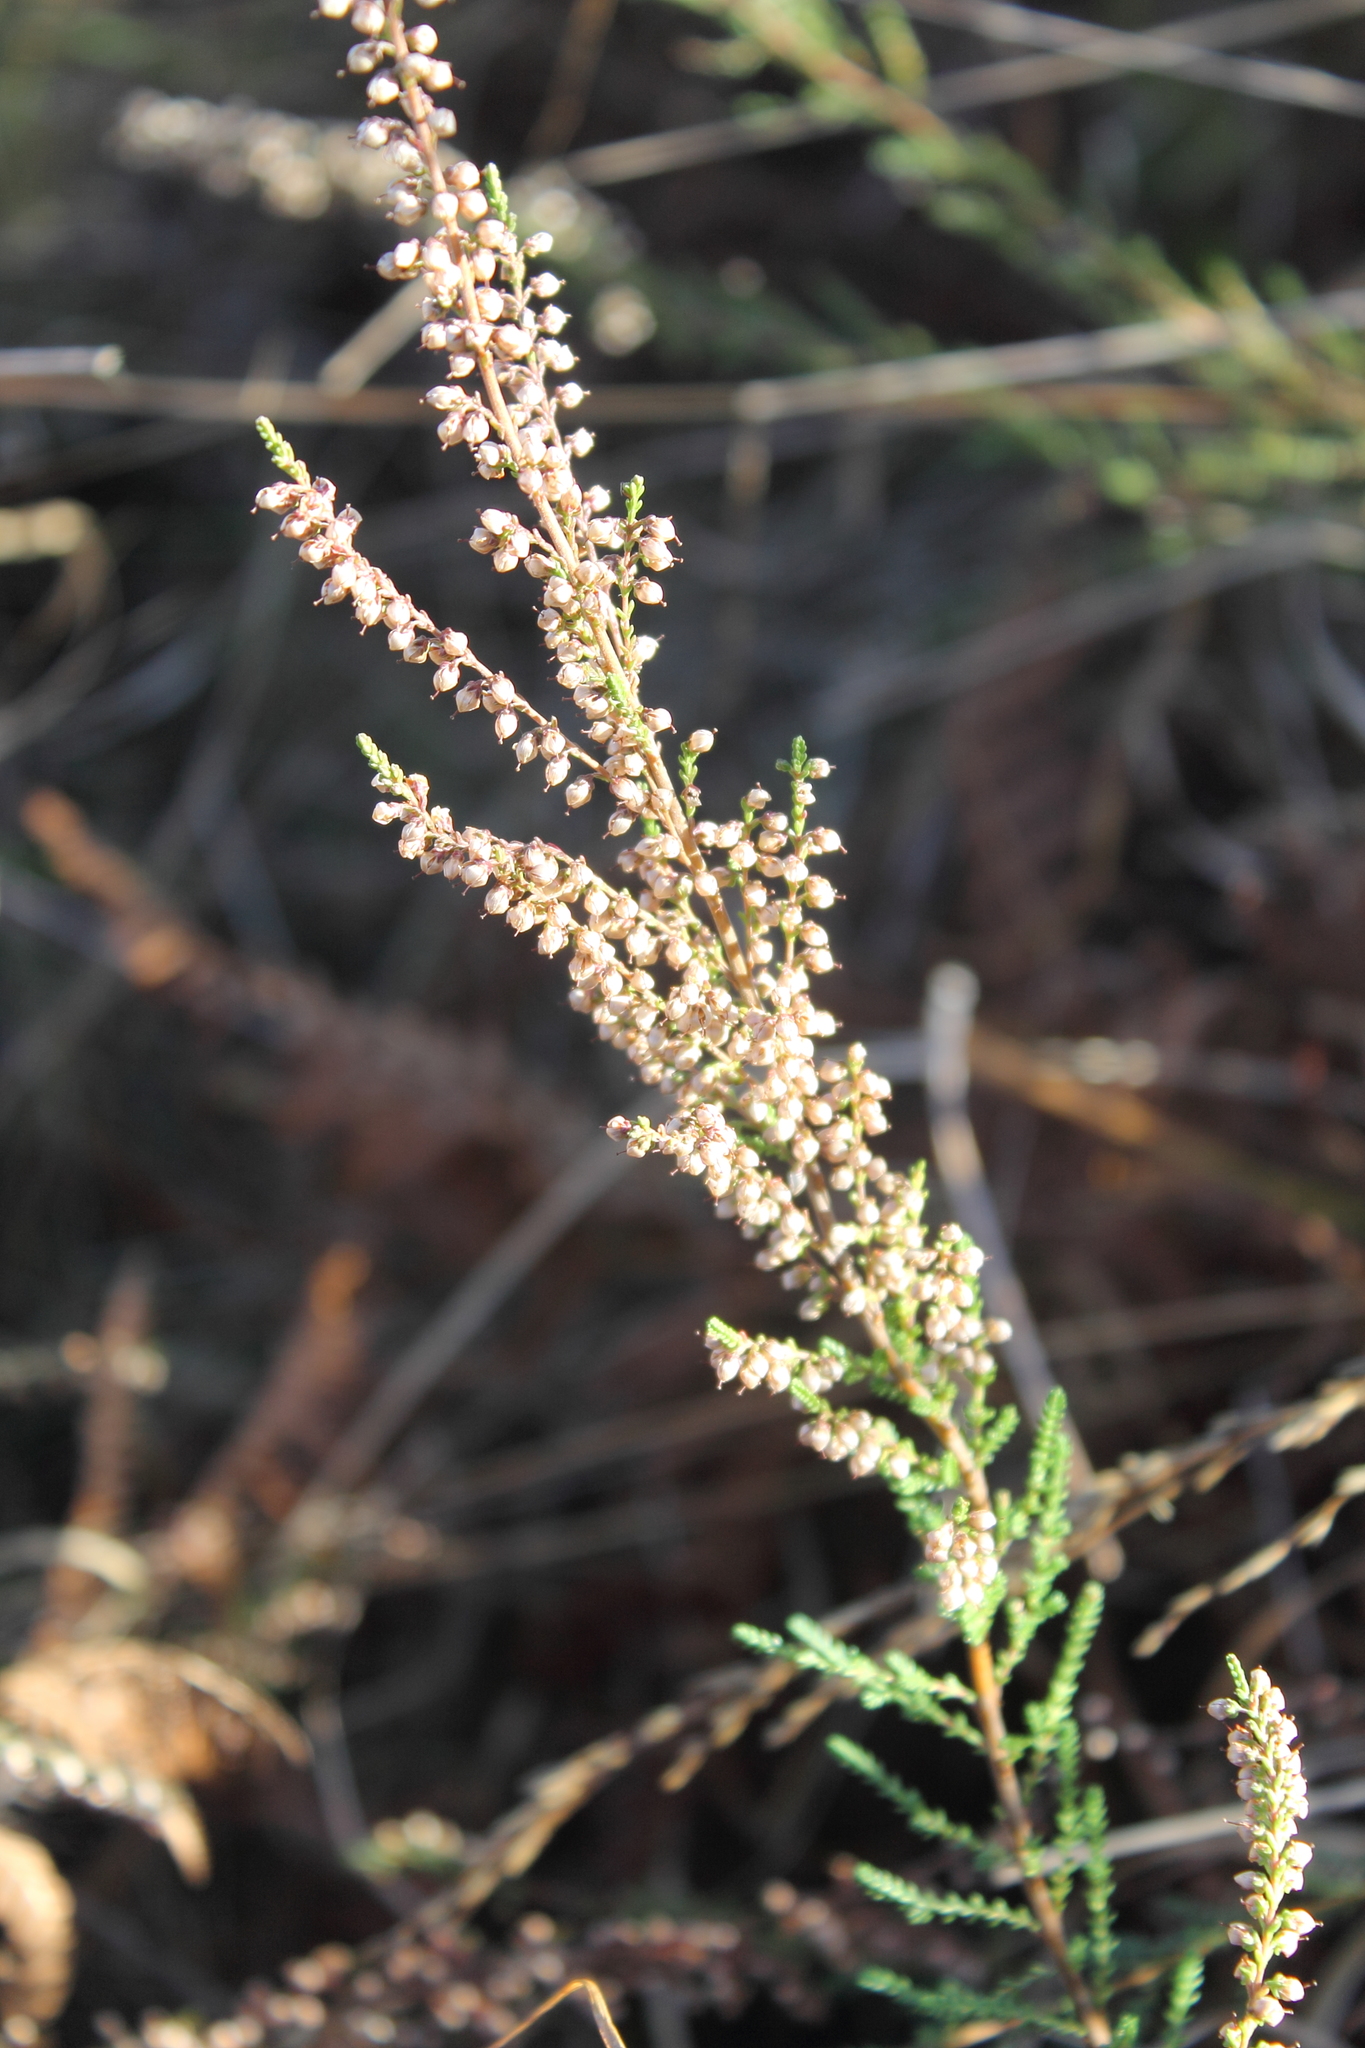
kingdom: Plantae
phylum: Tracheophyta
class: Magnoliopsida
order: Ericales
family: Ericaceae
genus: Calluna
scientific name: Calluna vulgaris
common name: Heather
